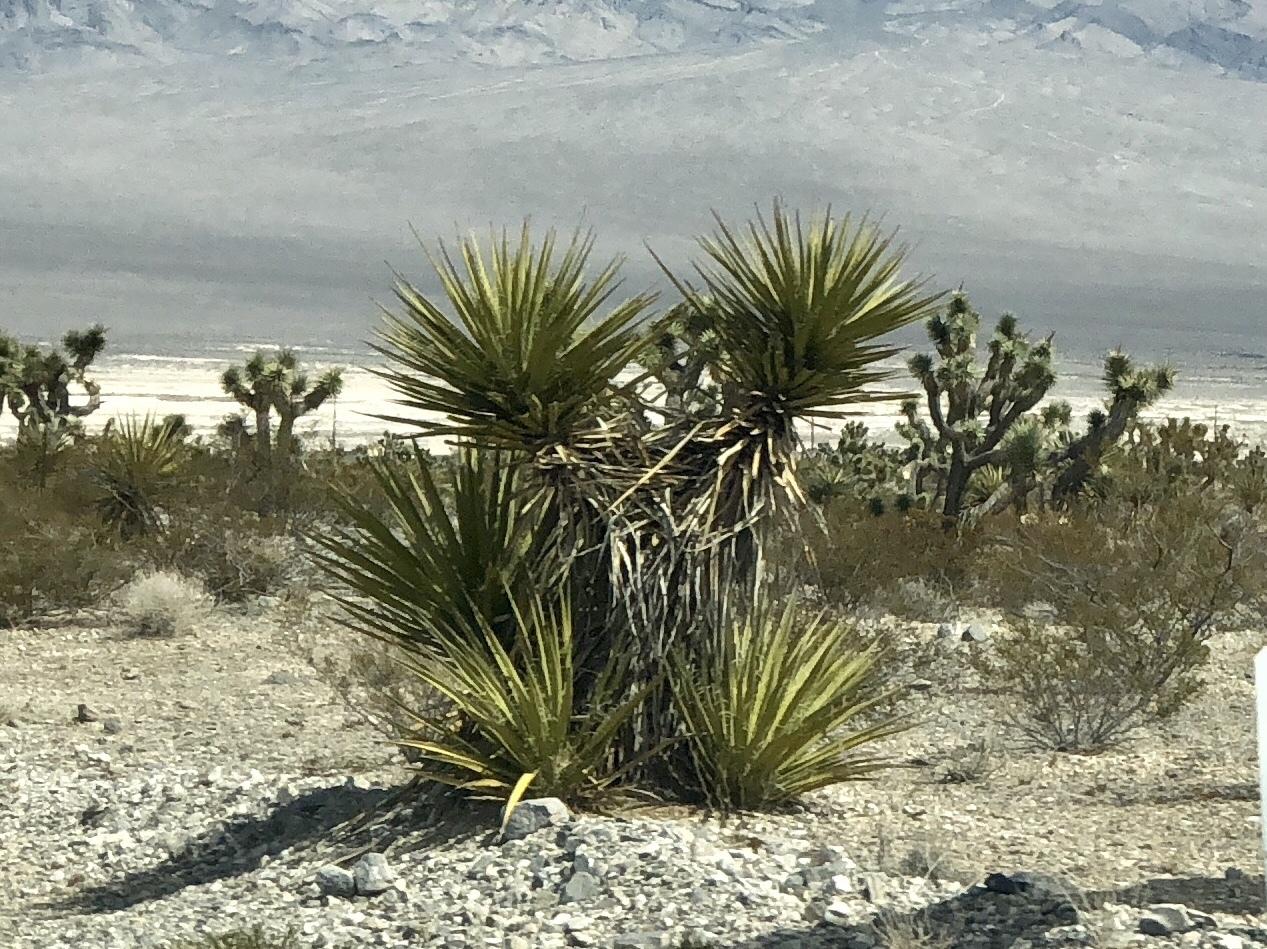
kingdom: Plantae
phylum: Tracheophyta
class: Liliopsida
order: Asparagales
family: Asparagaceae
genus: Yucca
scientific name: Yucca schidigera
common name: Mojave yucca
